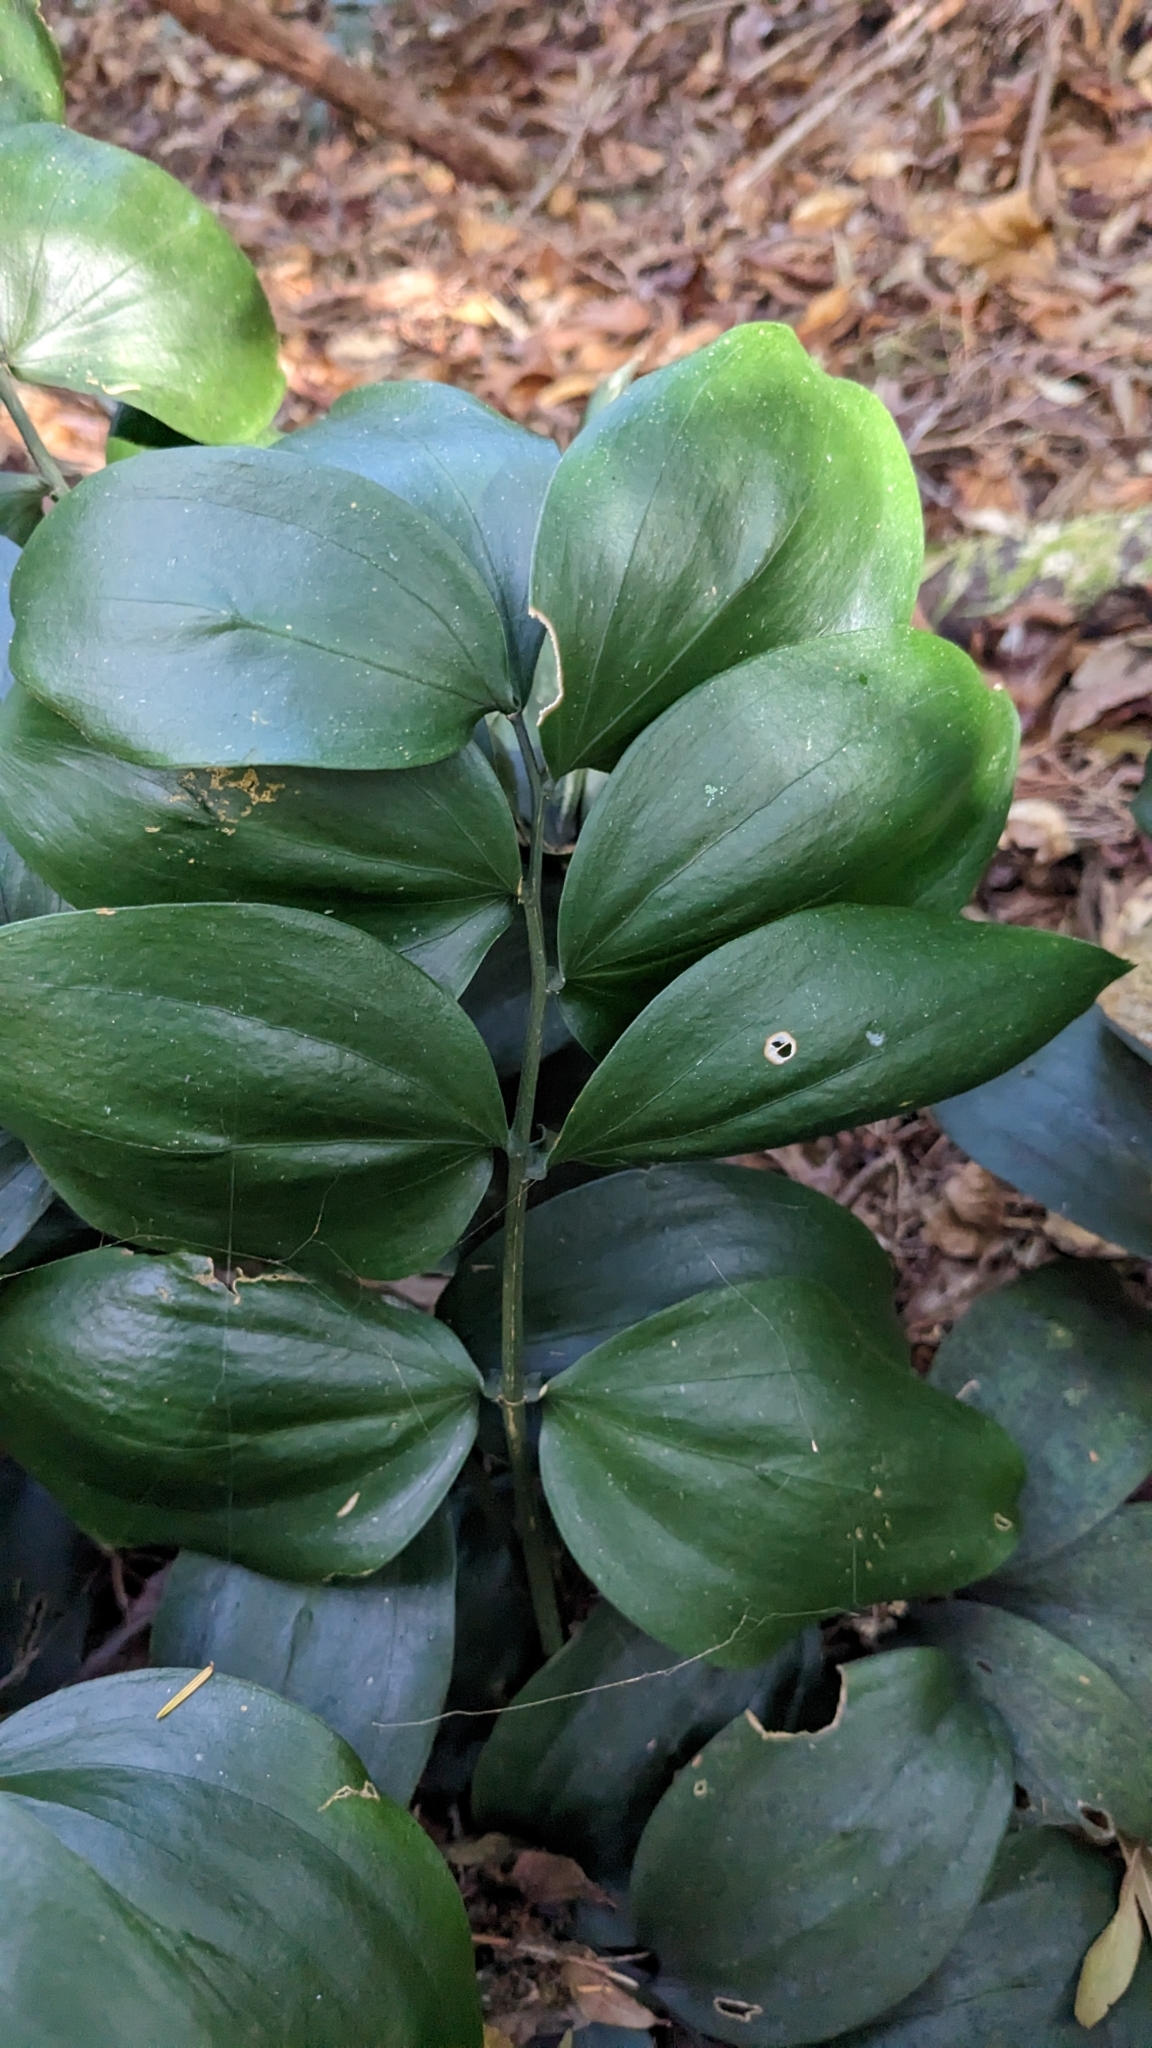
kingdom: Plantae
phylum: Tracheophyta
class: Liliopsida
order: Asparagales
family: Asparagaceae
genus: Ruscus
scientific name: Ruscus streptophyllus
